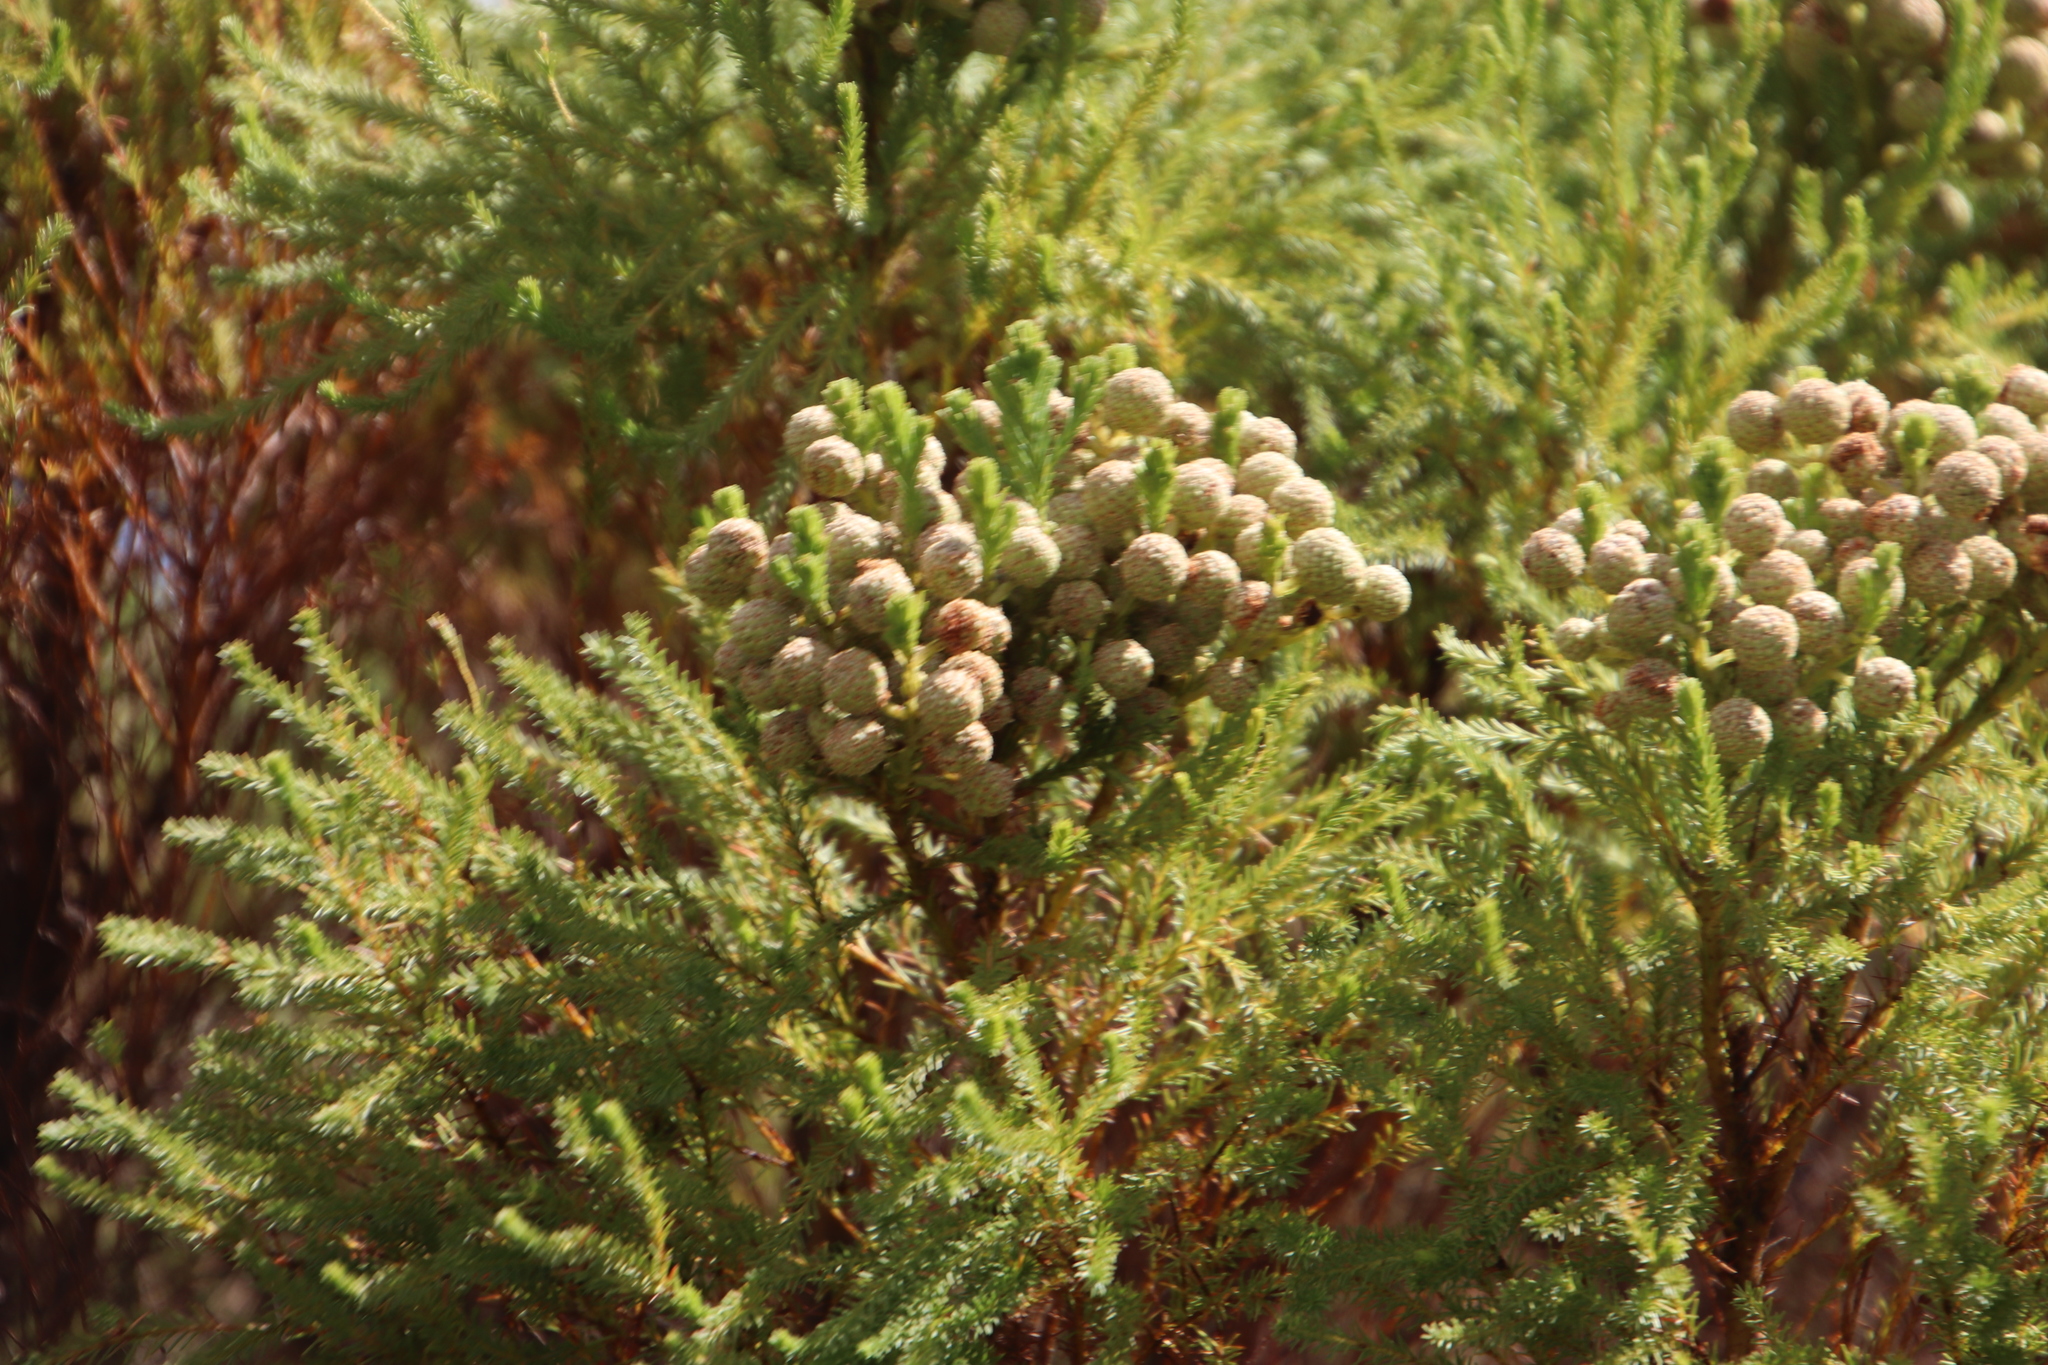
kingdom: Plantae
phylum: Tracheophyta
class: Magnoliopsida
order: Bruniales
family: Bruniaceae
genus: Berzelia
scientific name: Berzelia lanuginosa
